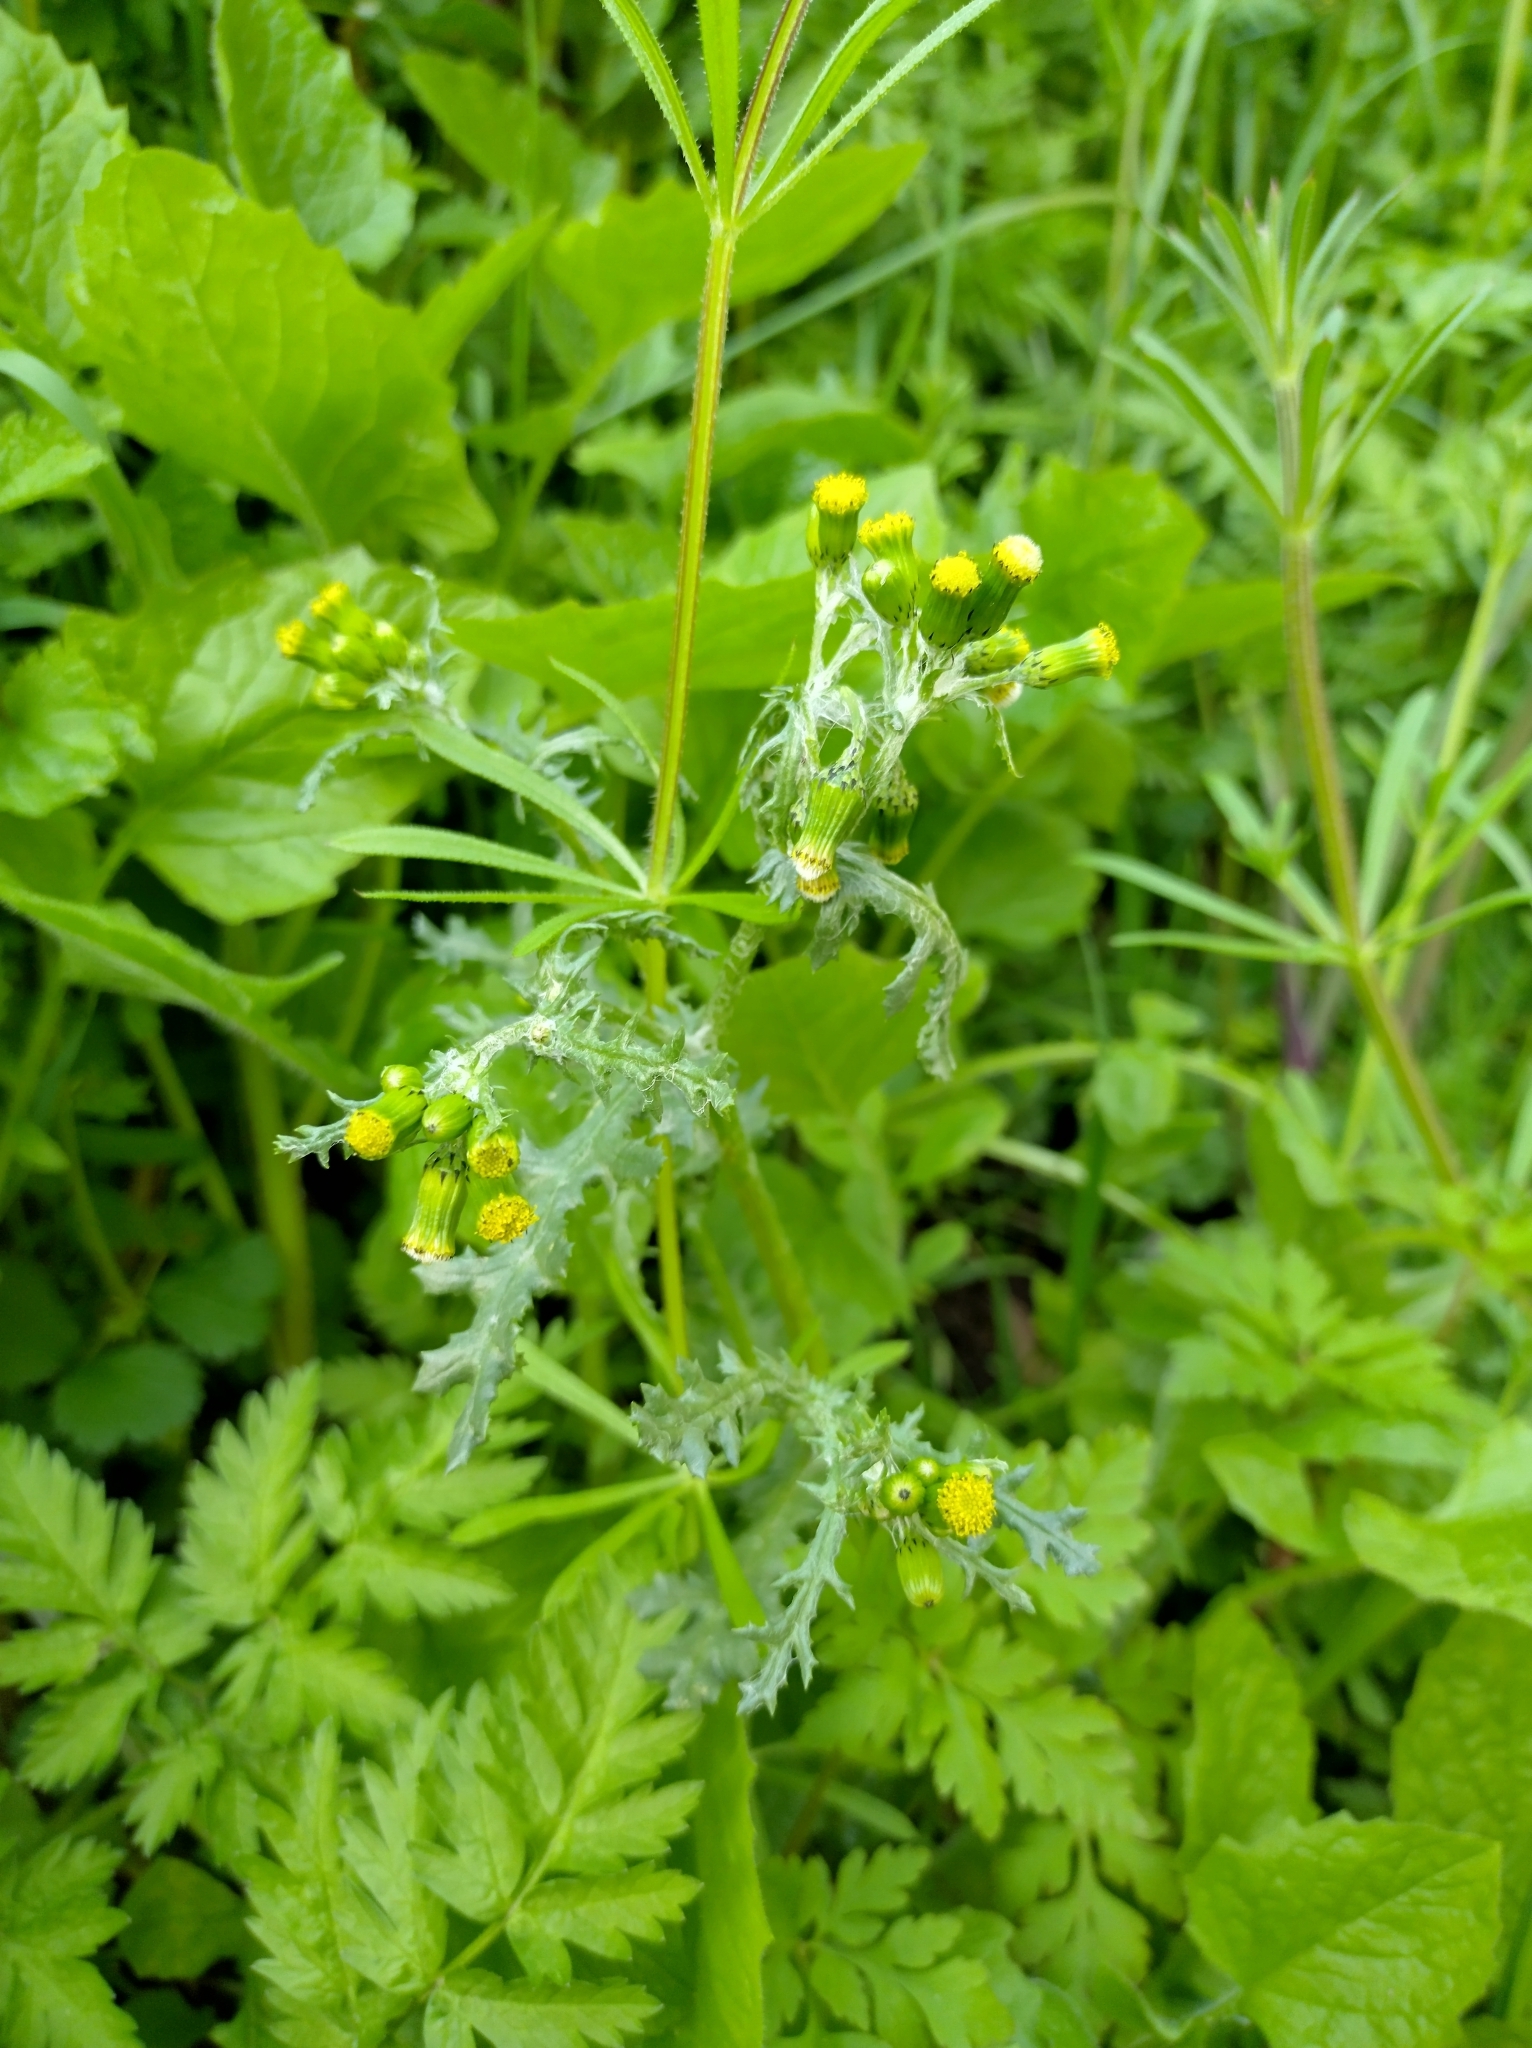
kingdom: Plantae
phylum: Tracheophyta
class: Magnoliopsida
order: Asterales
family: Asteraceae
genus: Senecio
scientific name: Senecio vulgaris
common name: Old-man-in-the-spring
